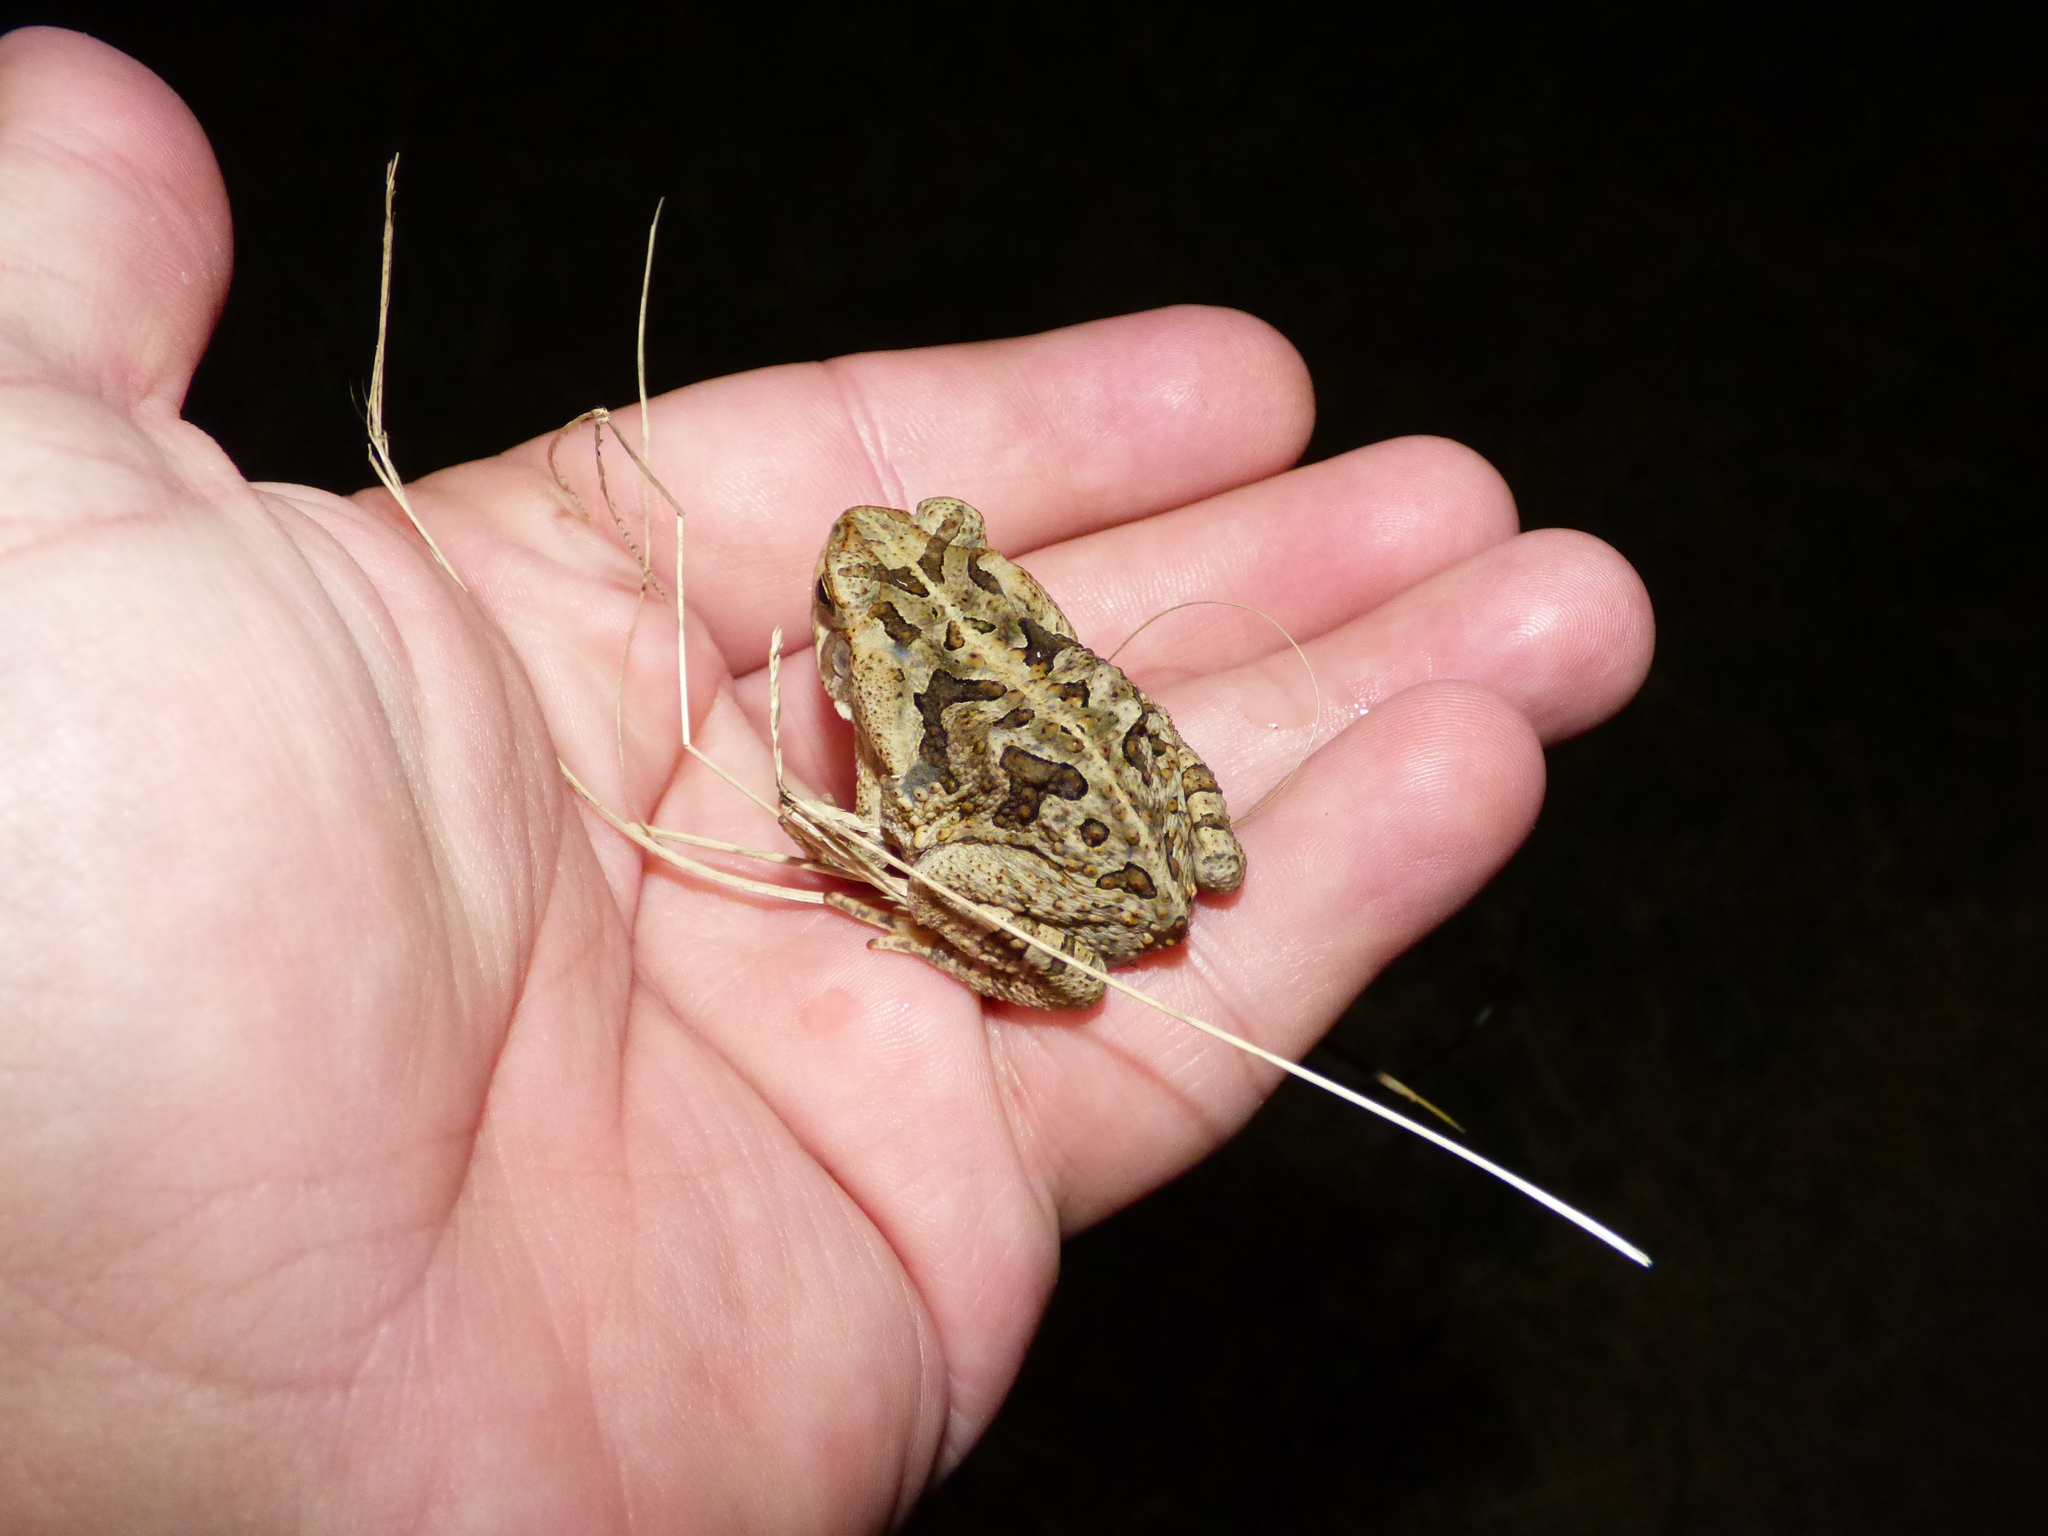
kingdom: Animalia
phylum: Chordata
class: Amphibia
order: Anura
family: Bufonidae
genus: Rhinella
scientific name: Rhinella diptycha
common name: Cope's toad
